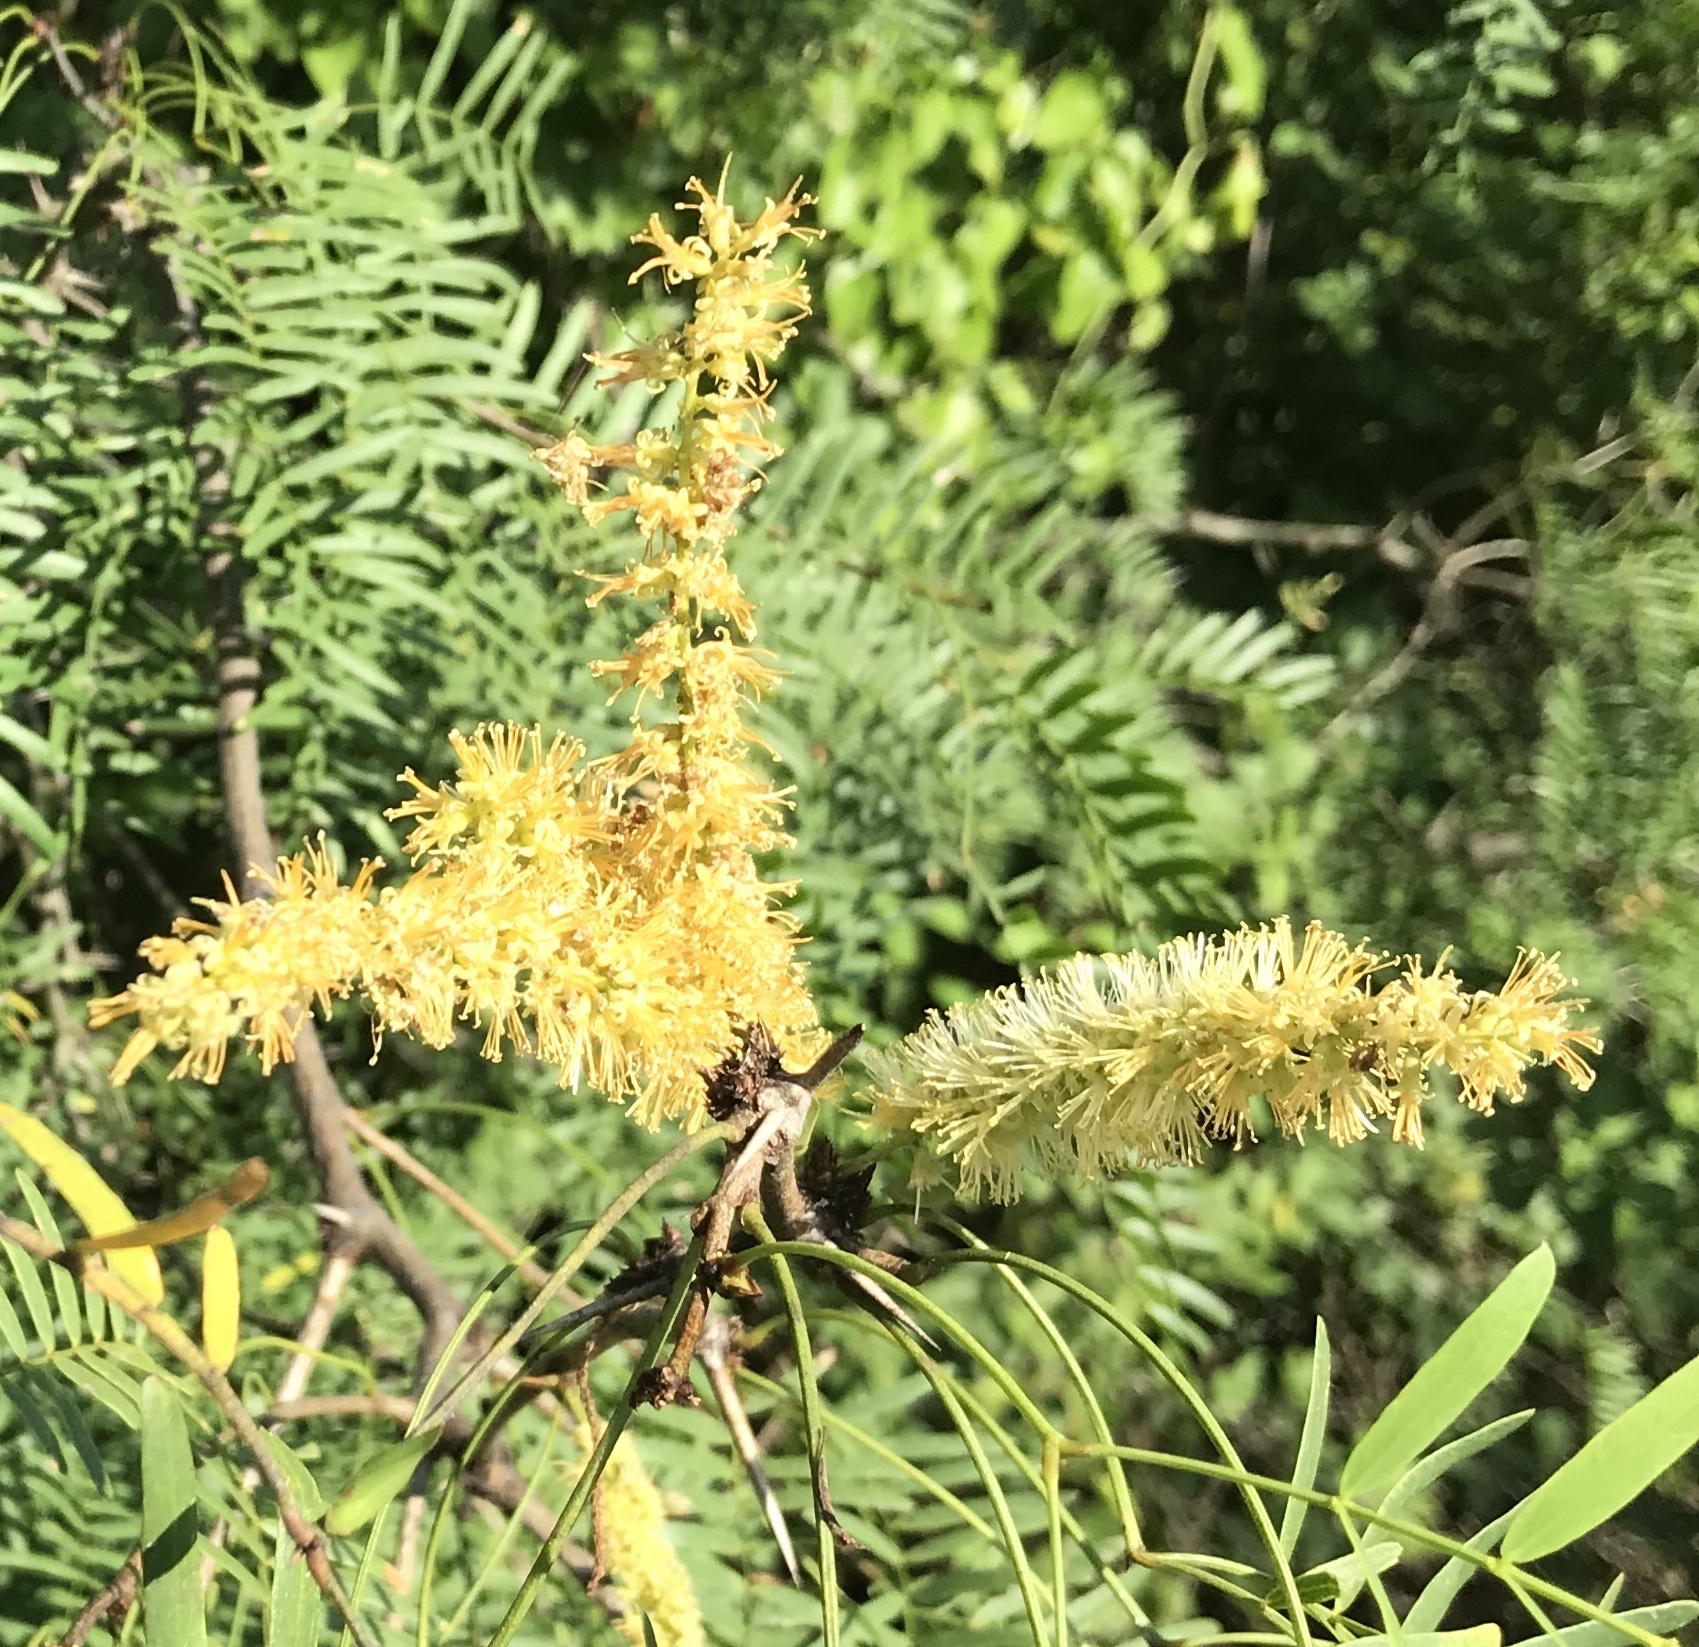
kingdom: Plantae
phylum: Tracheophyta
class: Magnoliopsida
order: Fabales
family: Fabaceae
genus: Prosopis
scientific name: Prosopis glandulosa
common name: Honey mesquite
